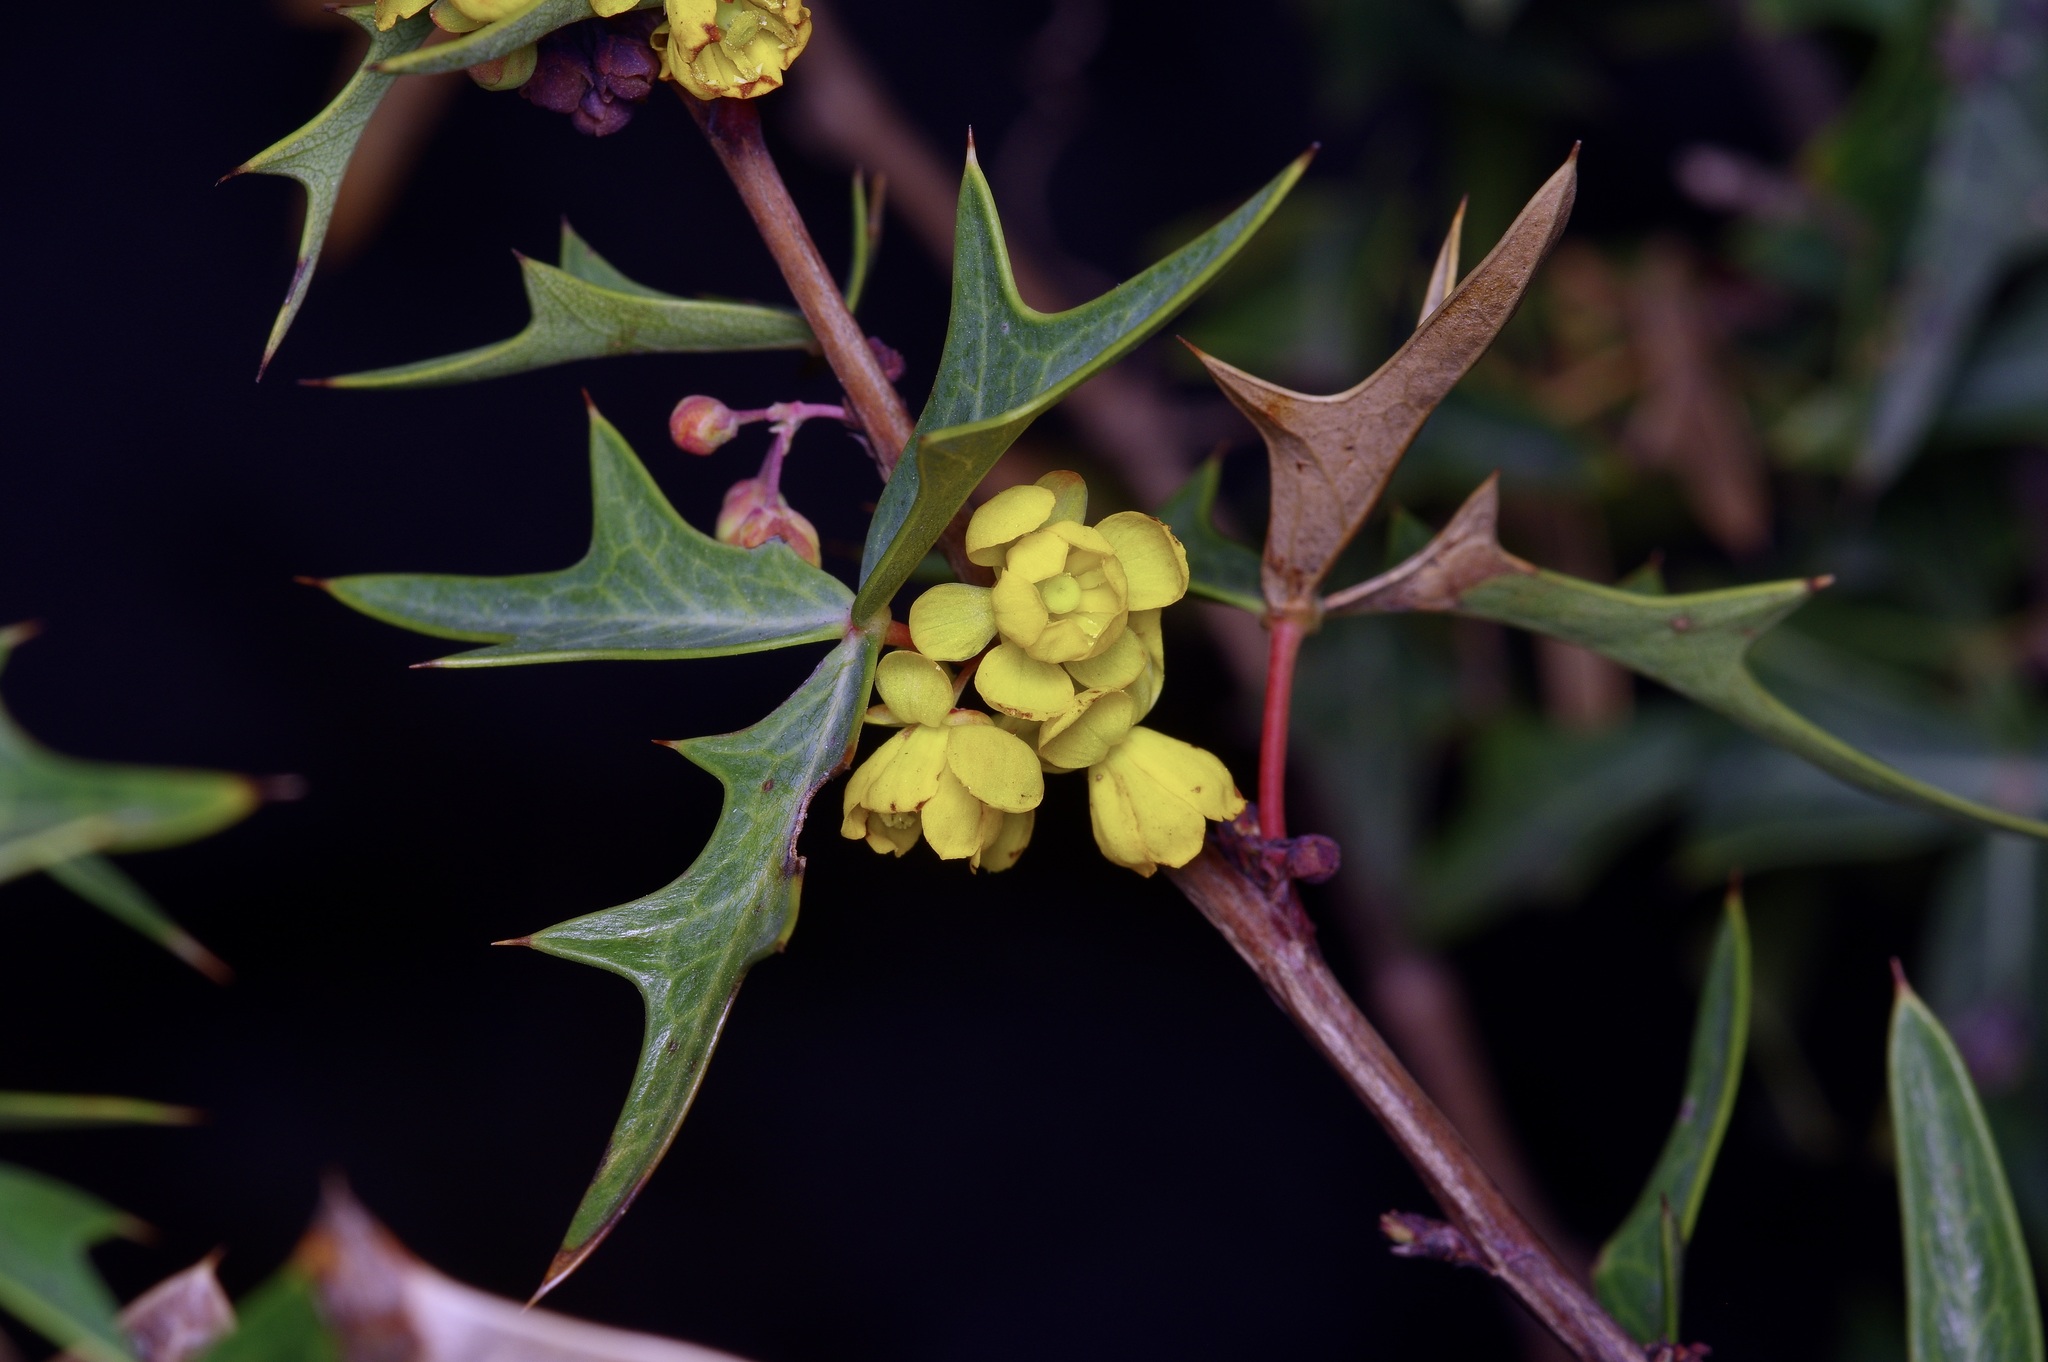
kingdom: Plantae
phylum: Tracheophyta
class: Magnoliopsida
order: Ranunculales
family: Berberidaceae
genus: Alloberberis
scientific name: Alloberberis trifoliolata
